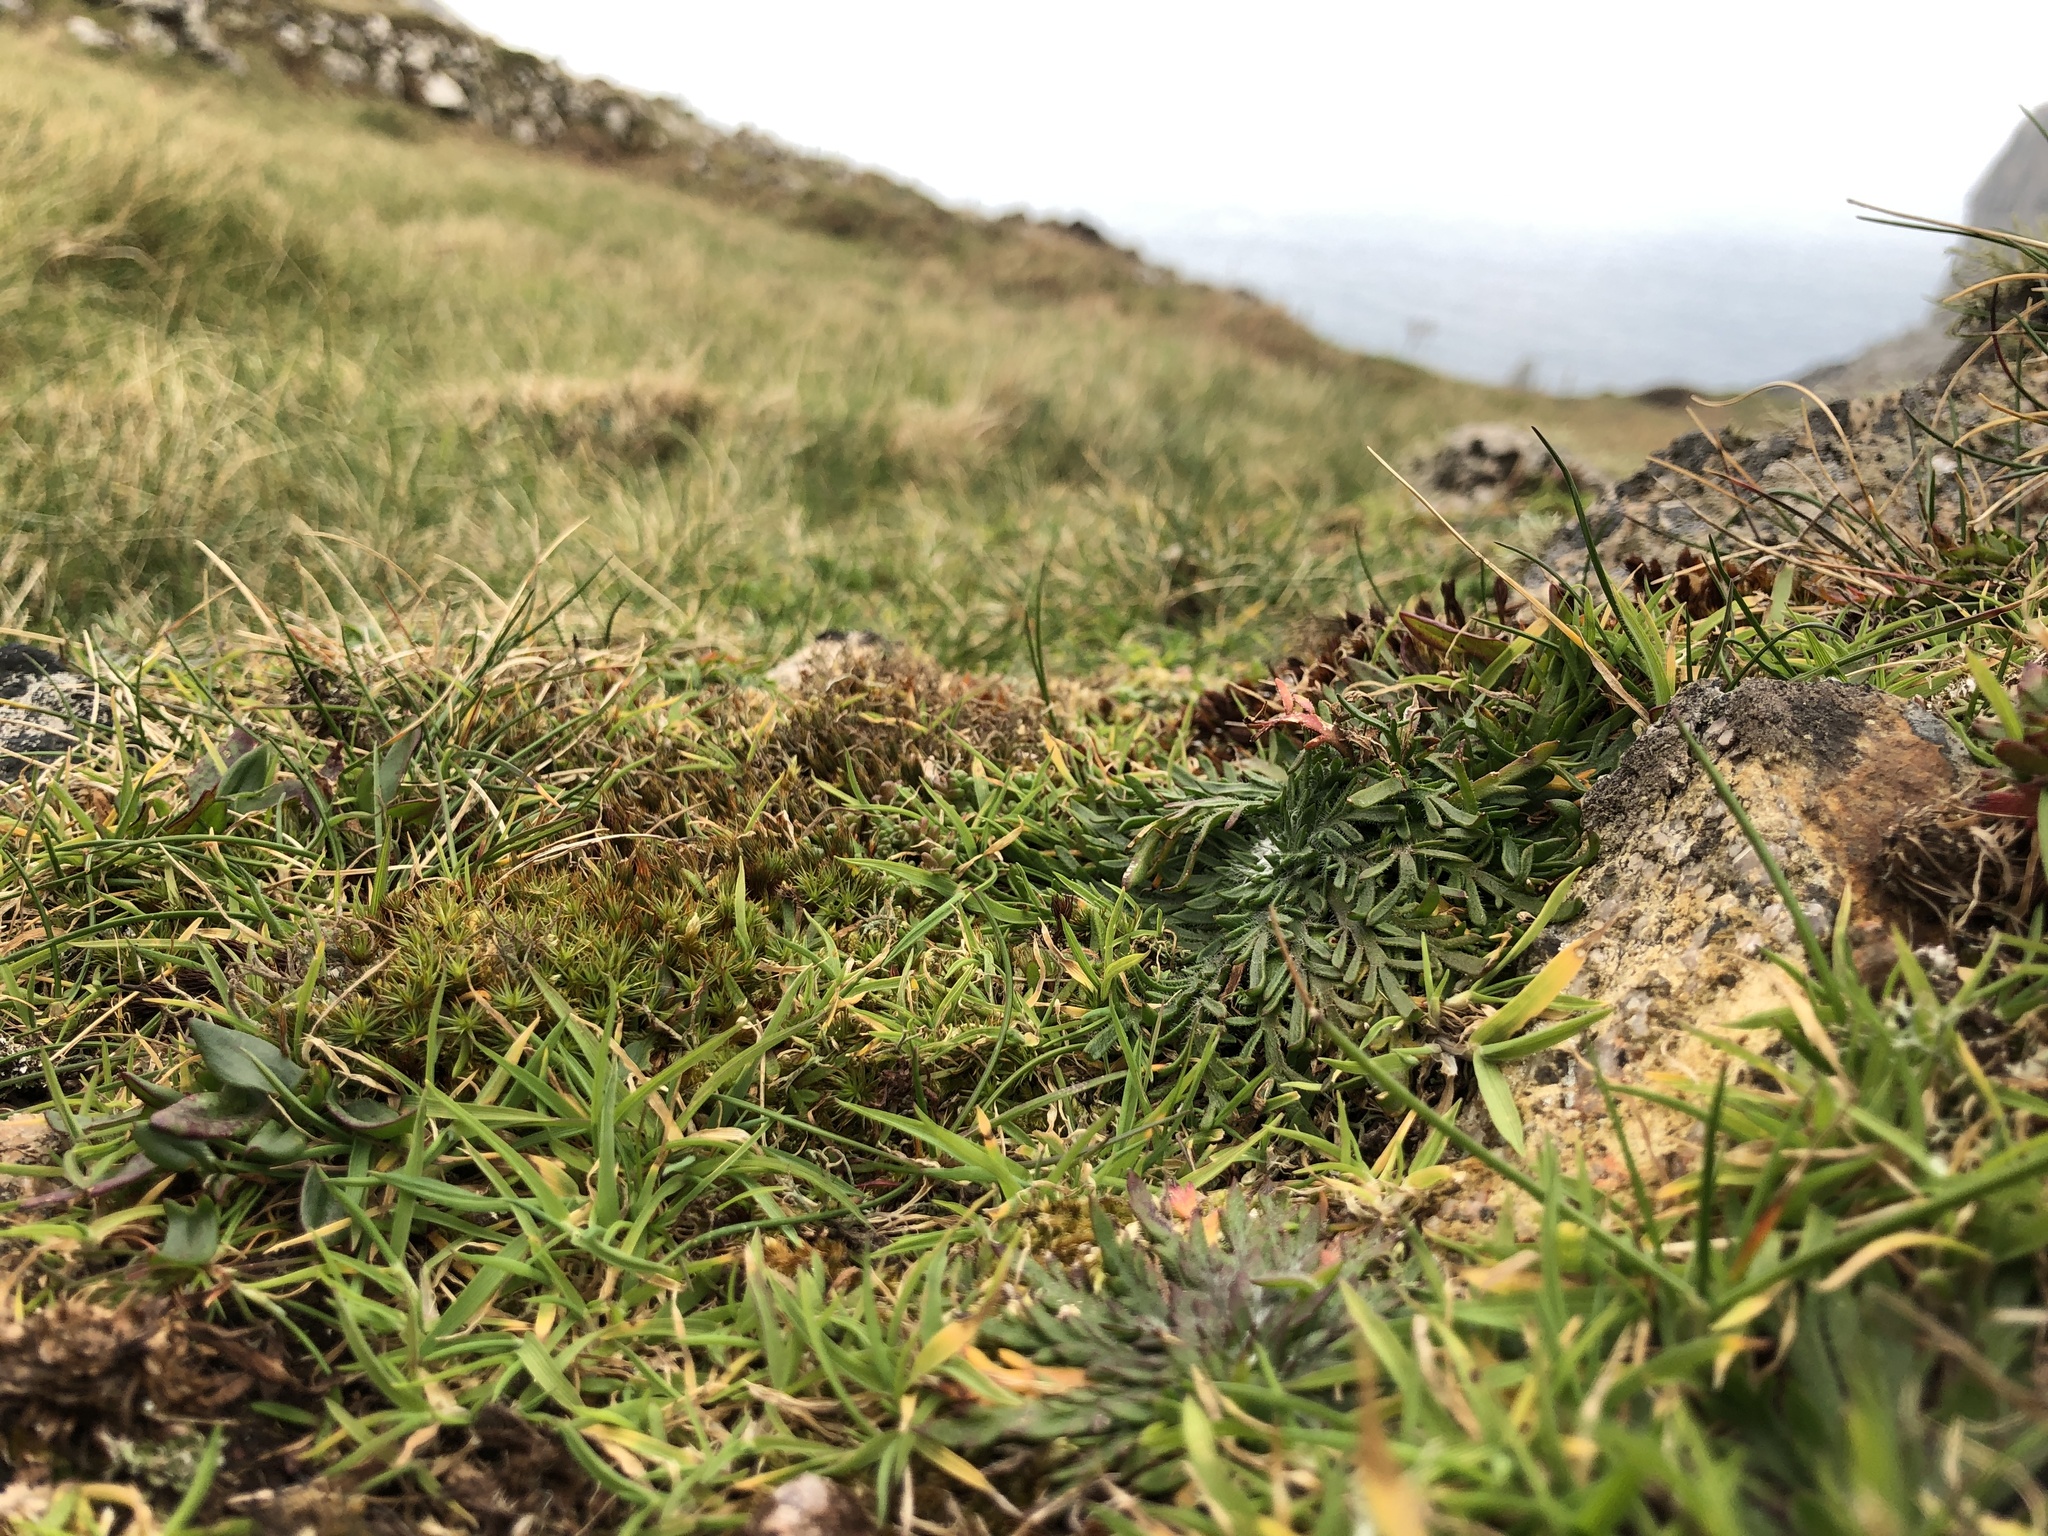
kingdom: Plantae
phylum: Bryophyta
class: Polytrichopsida
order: Polytrichales
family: Polytrichaceae
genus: Polytrichum
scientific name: Polytrichum juniperinum
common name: Juniper haircap moss
